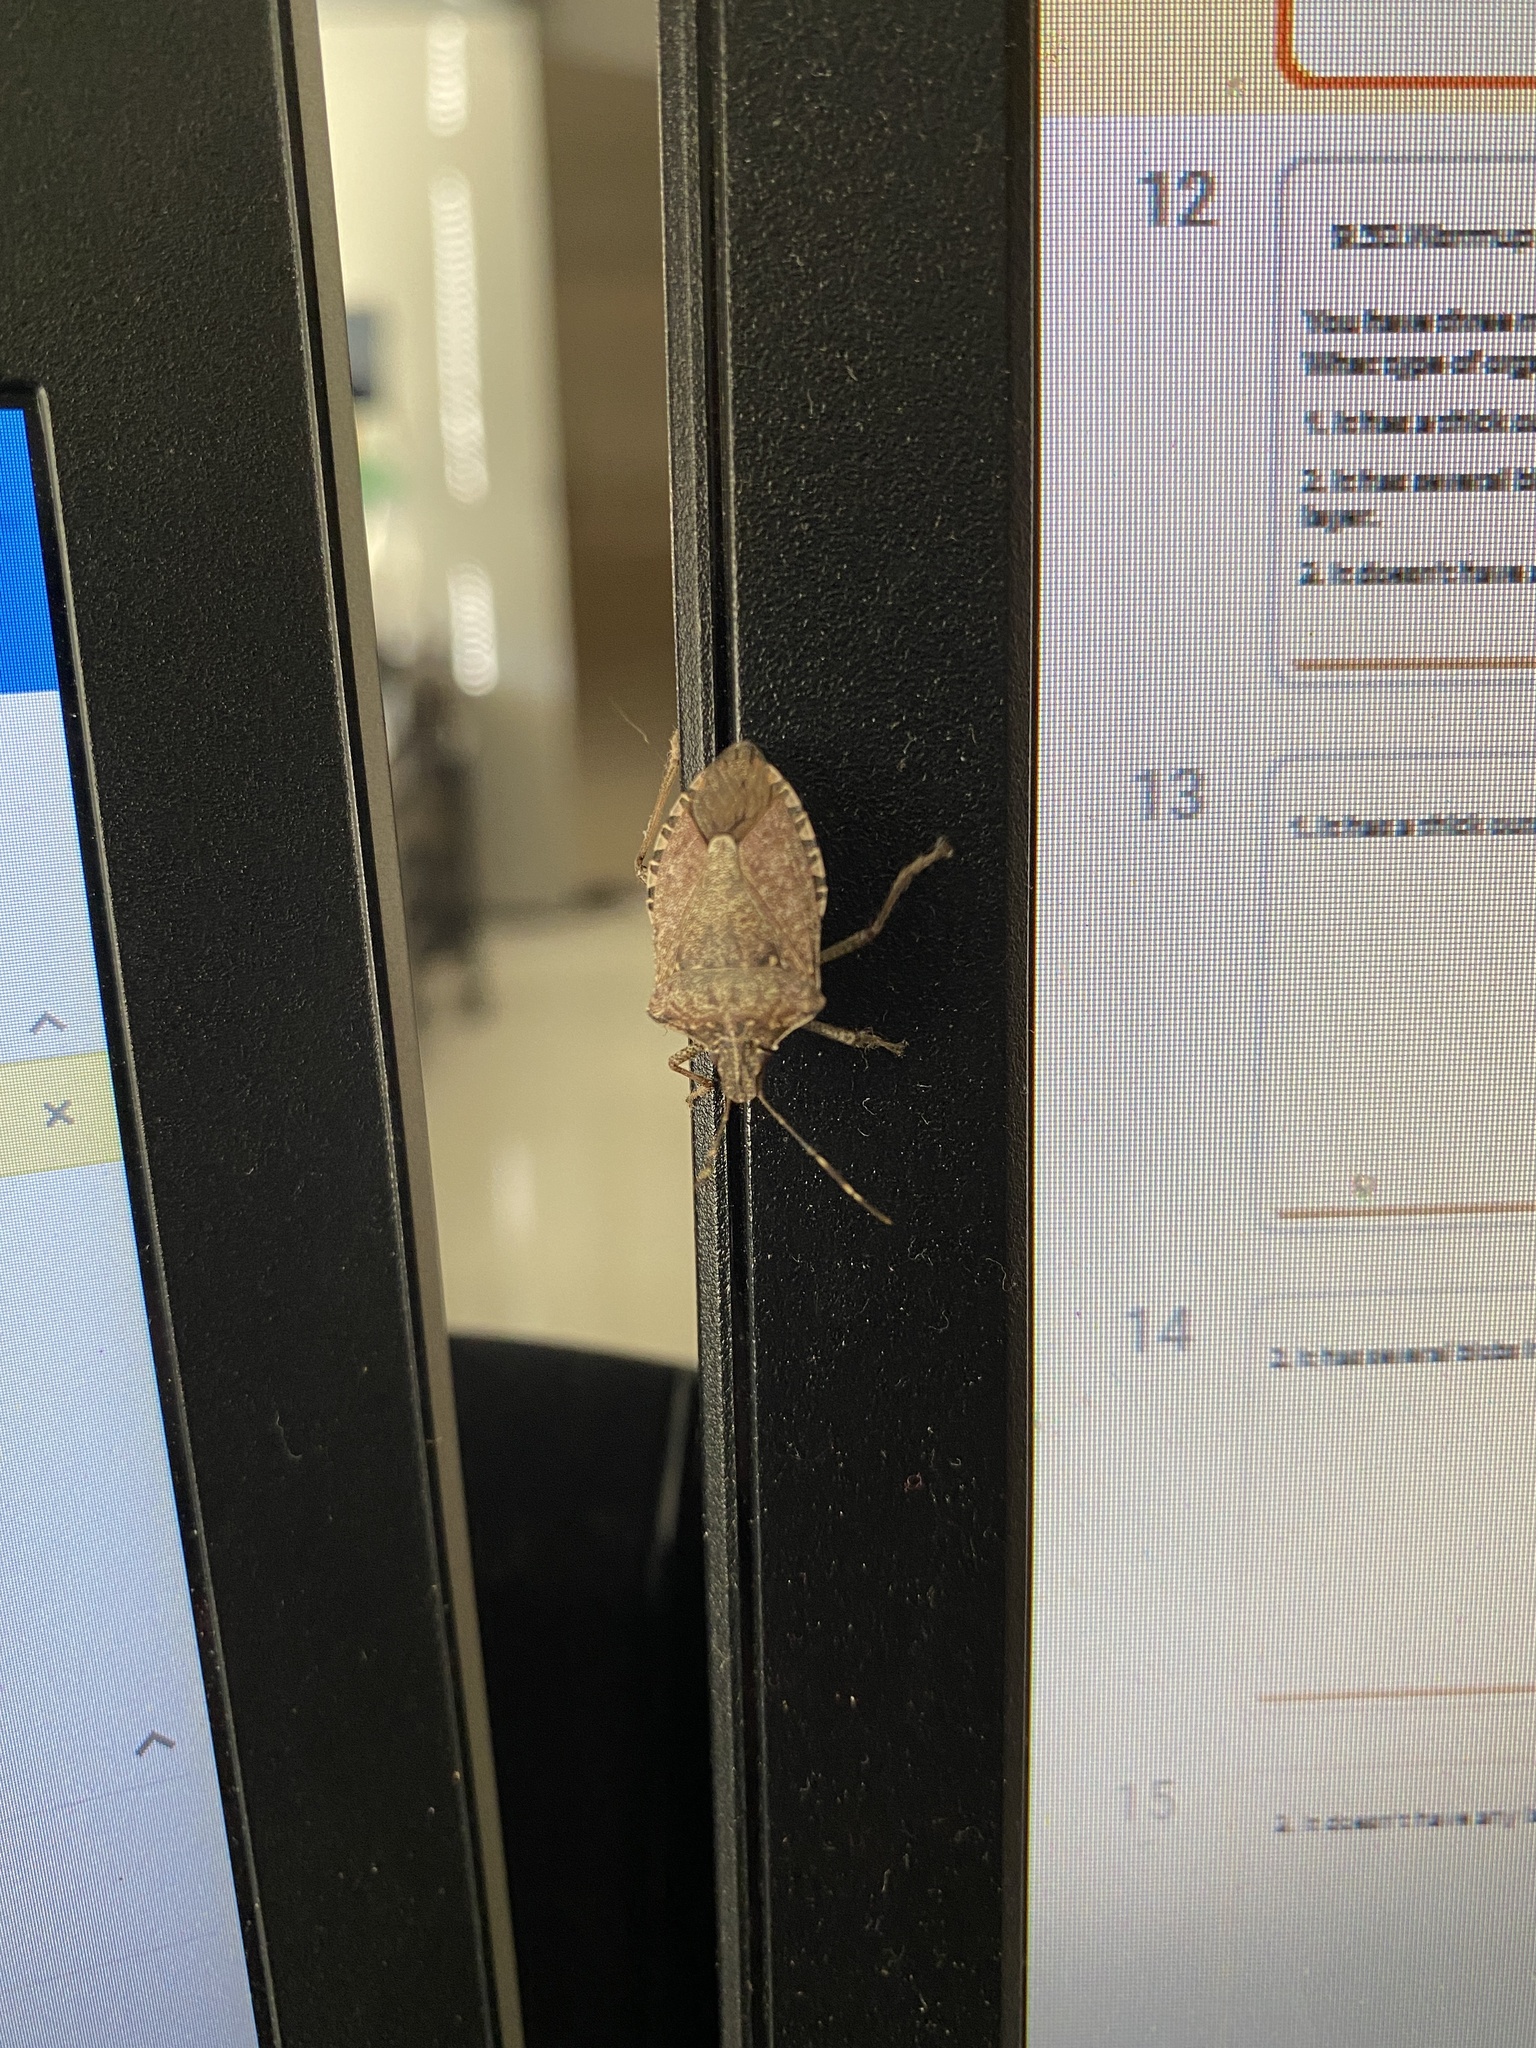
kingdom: Animalia
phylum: Arthropoda
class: Insecta
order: Hemiptera
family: Pentatomidae
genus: Halyomorpha
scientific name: Halyomorpha halys
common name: Brown marmorated stink bug
